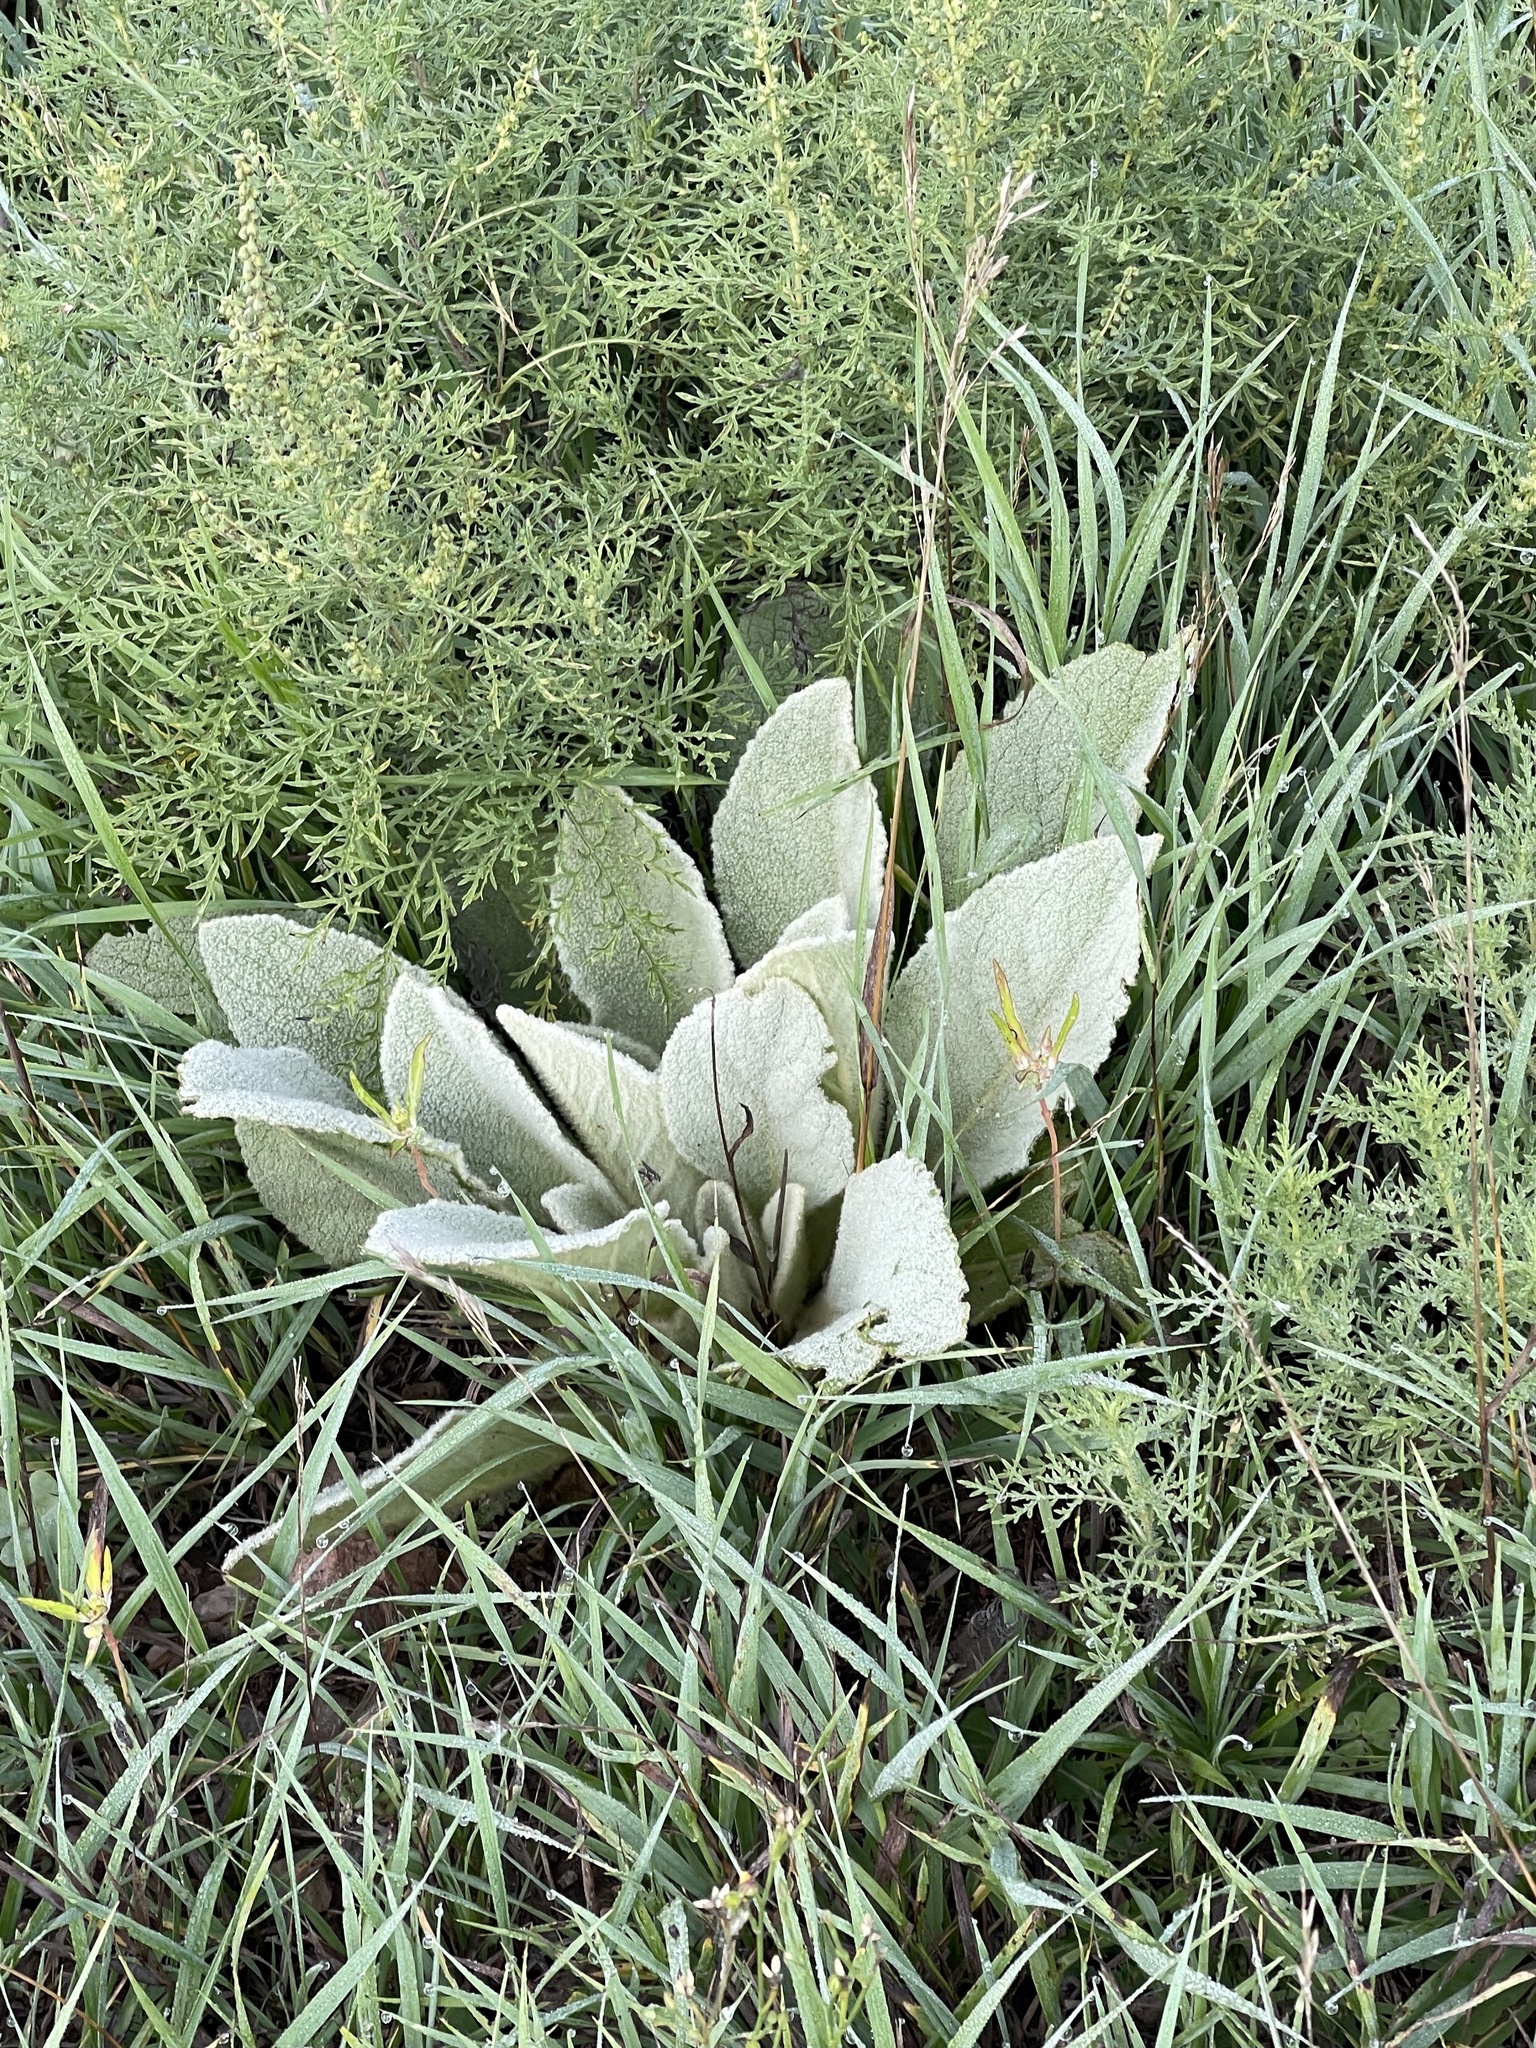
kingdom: Plantae
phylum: Tracheophyta
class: Magnoliopsida
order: Lamiales
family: Scrophulariaceae
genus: Verbascum
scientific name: Verbascum thapsus
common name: Common mullein
